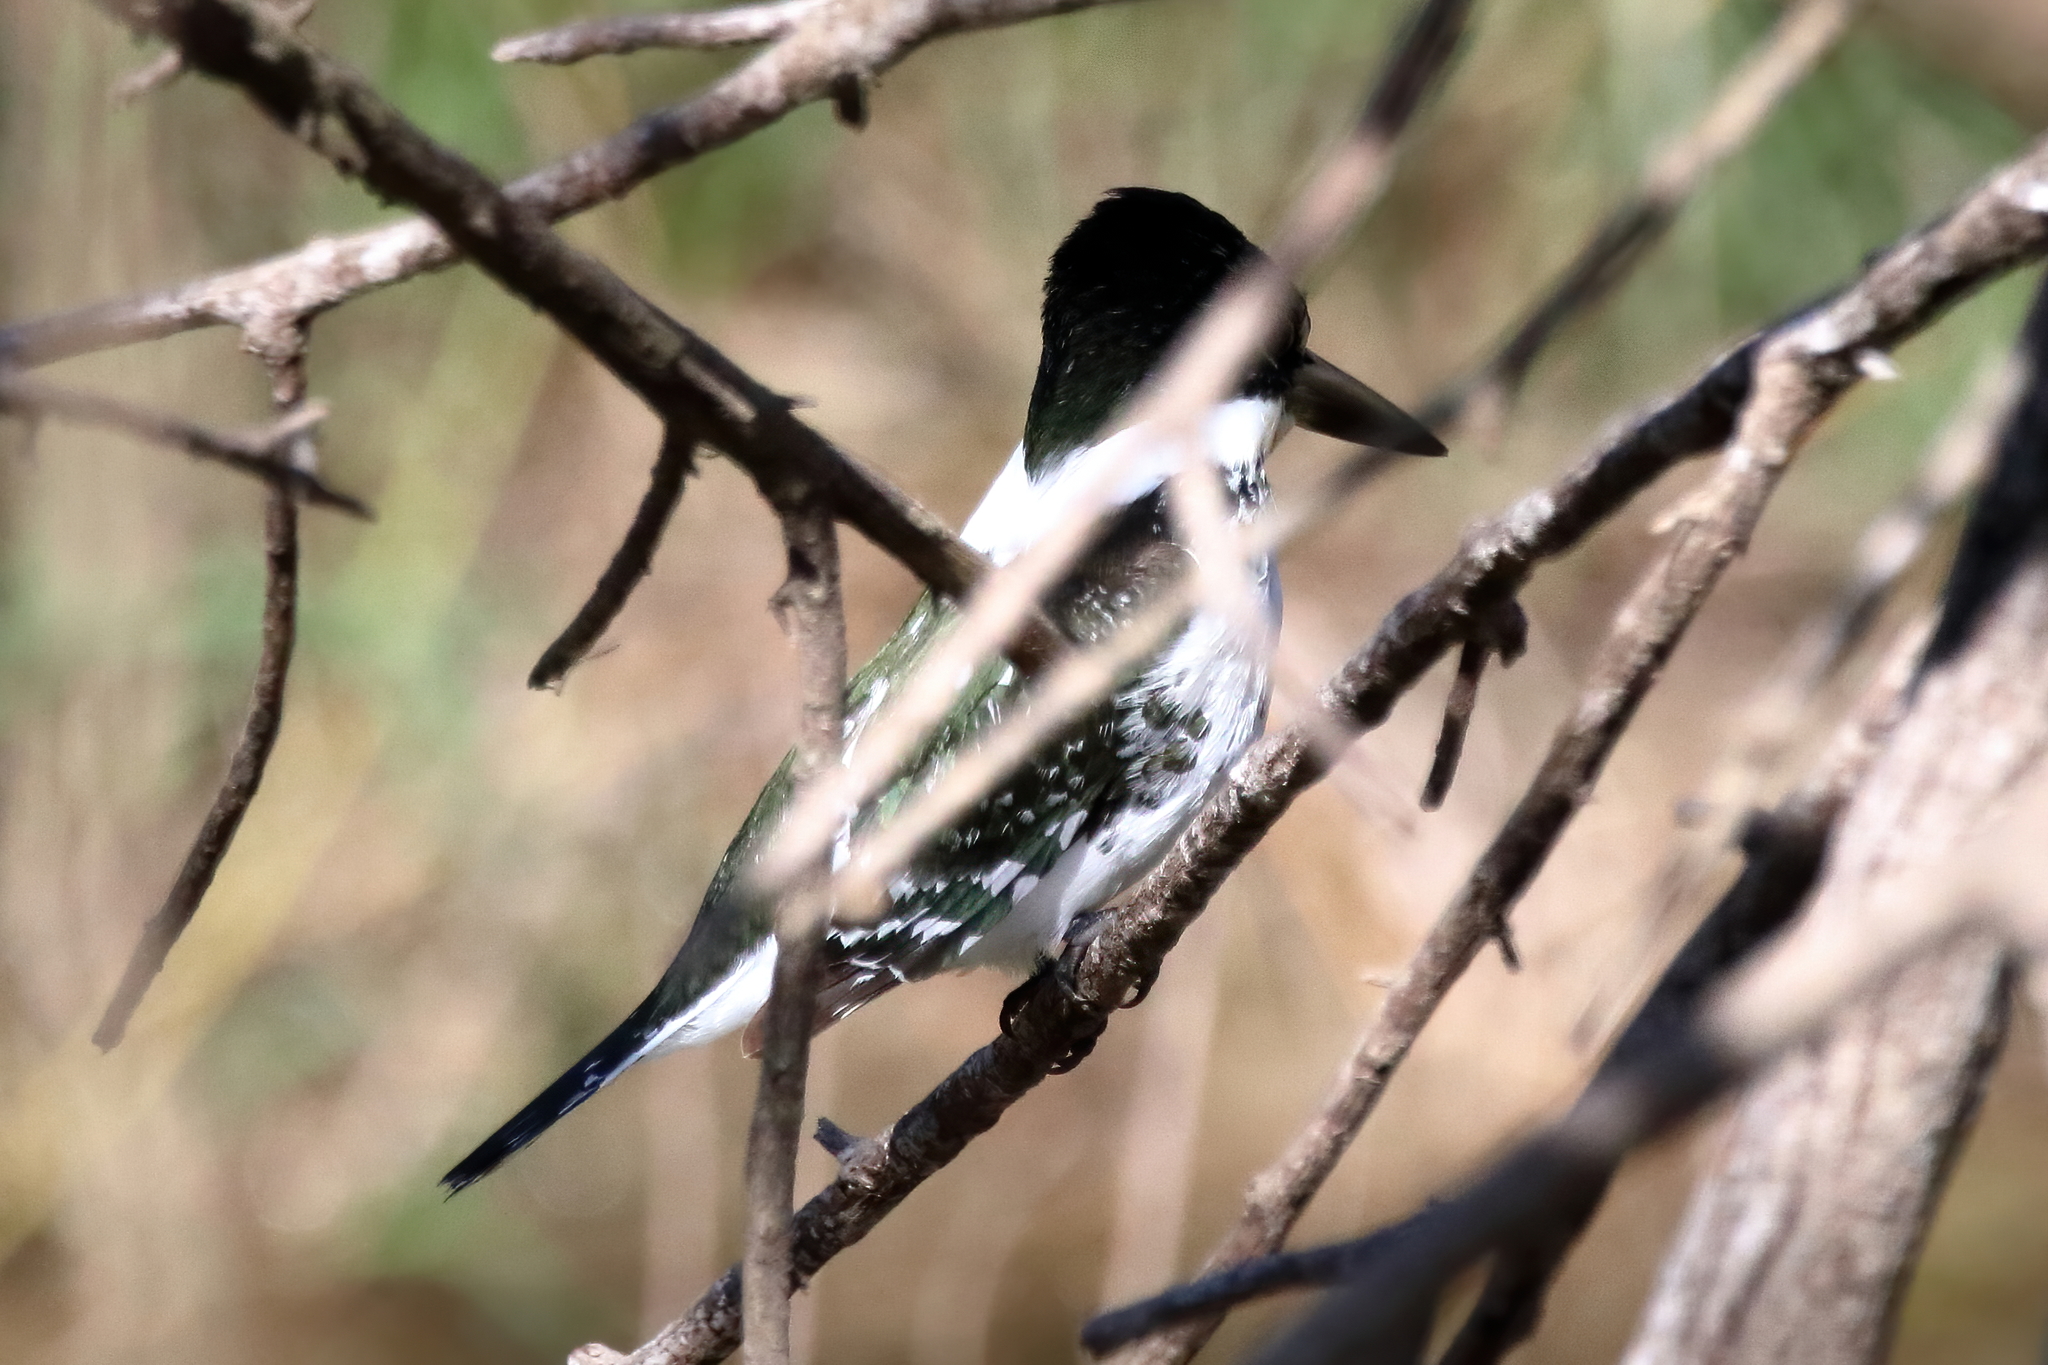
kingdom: Animalia
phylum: Chordata
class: Aves
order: Coraciiformes
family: Alcedinidae
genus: Chloroceryle
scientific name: Chloroceryle americana
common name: Green kingfisher
